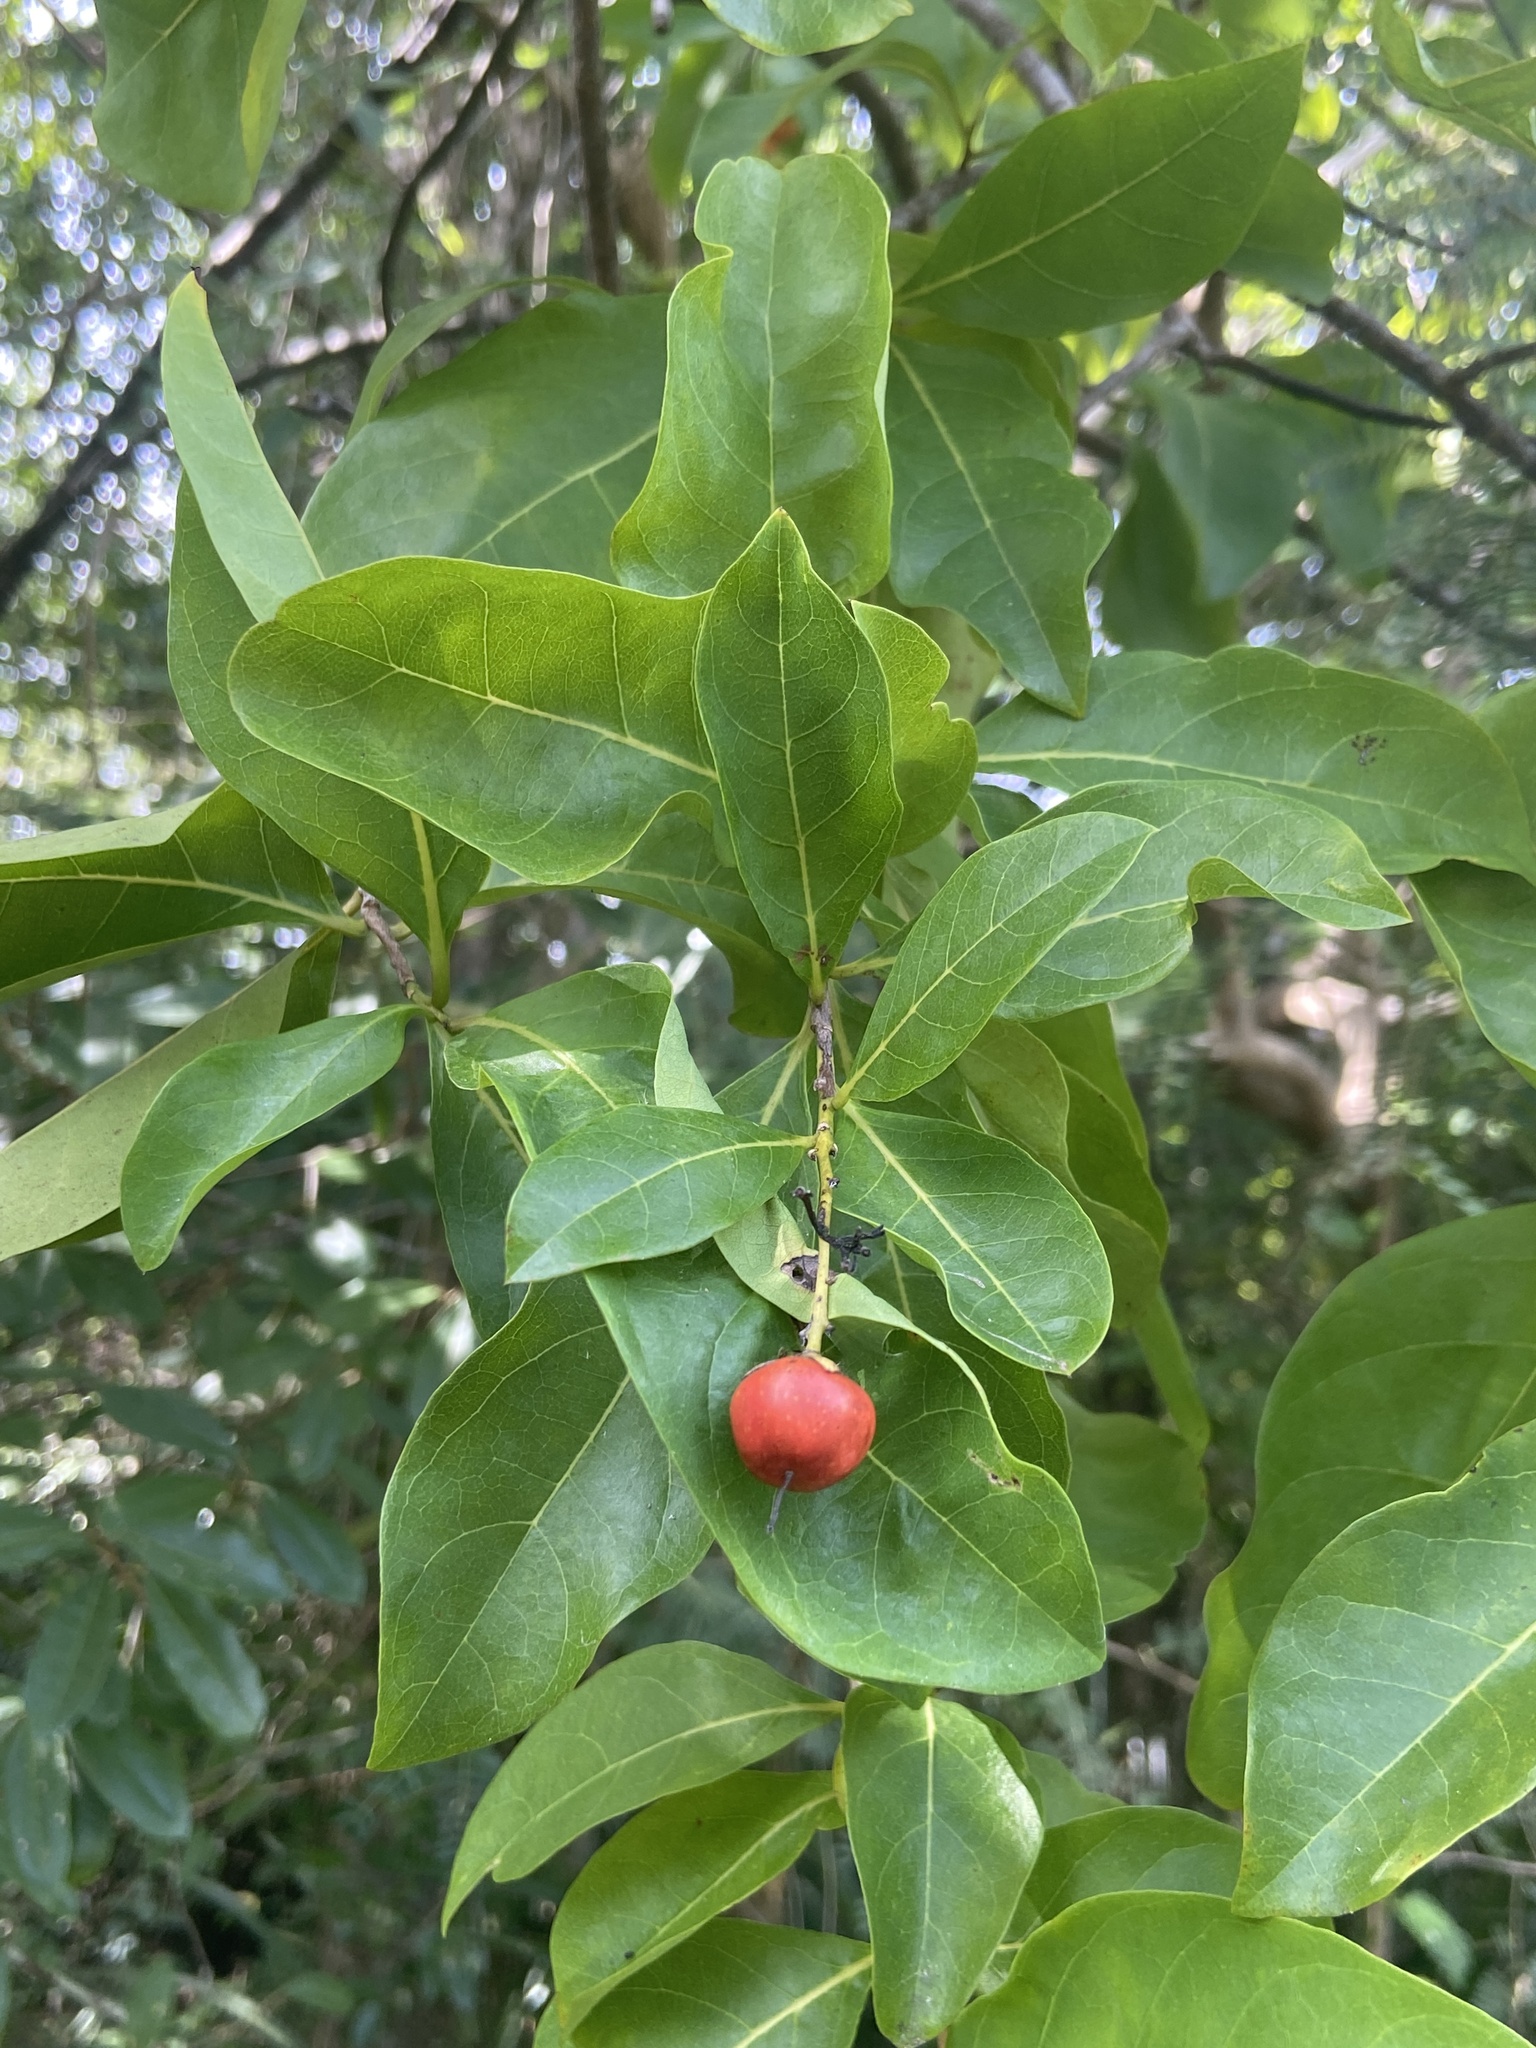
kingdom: Plantae
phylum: Tracheophyta
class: Magnoliopsida
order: Boraginales
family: Ehretiaceae
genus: Bourreria
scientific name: Bourreria succulenta
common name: Cherry
